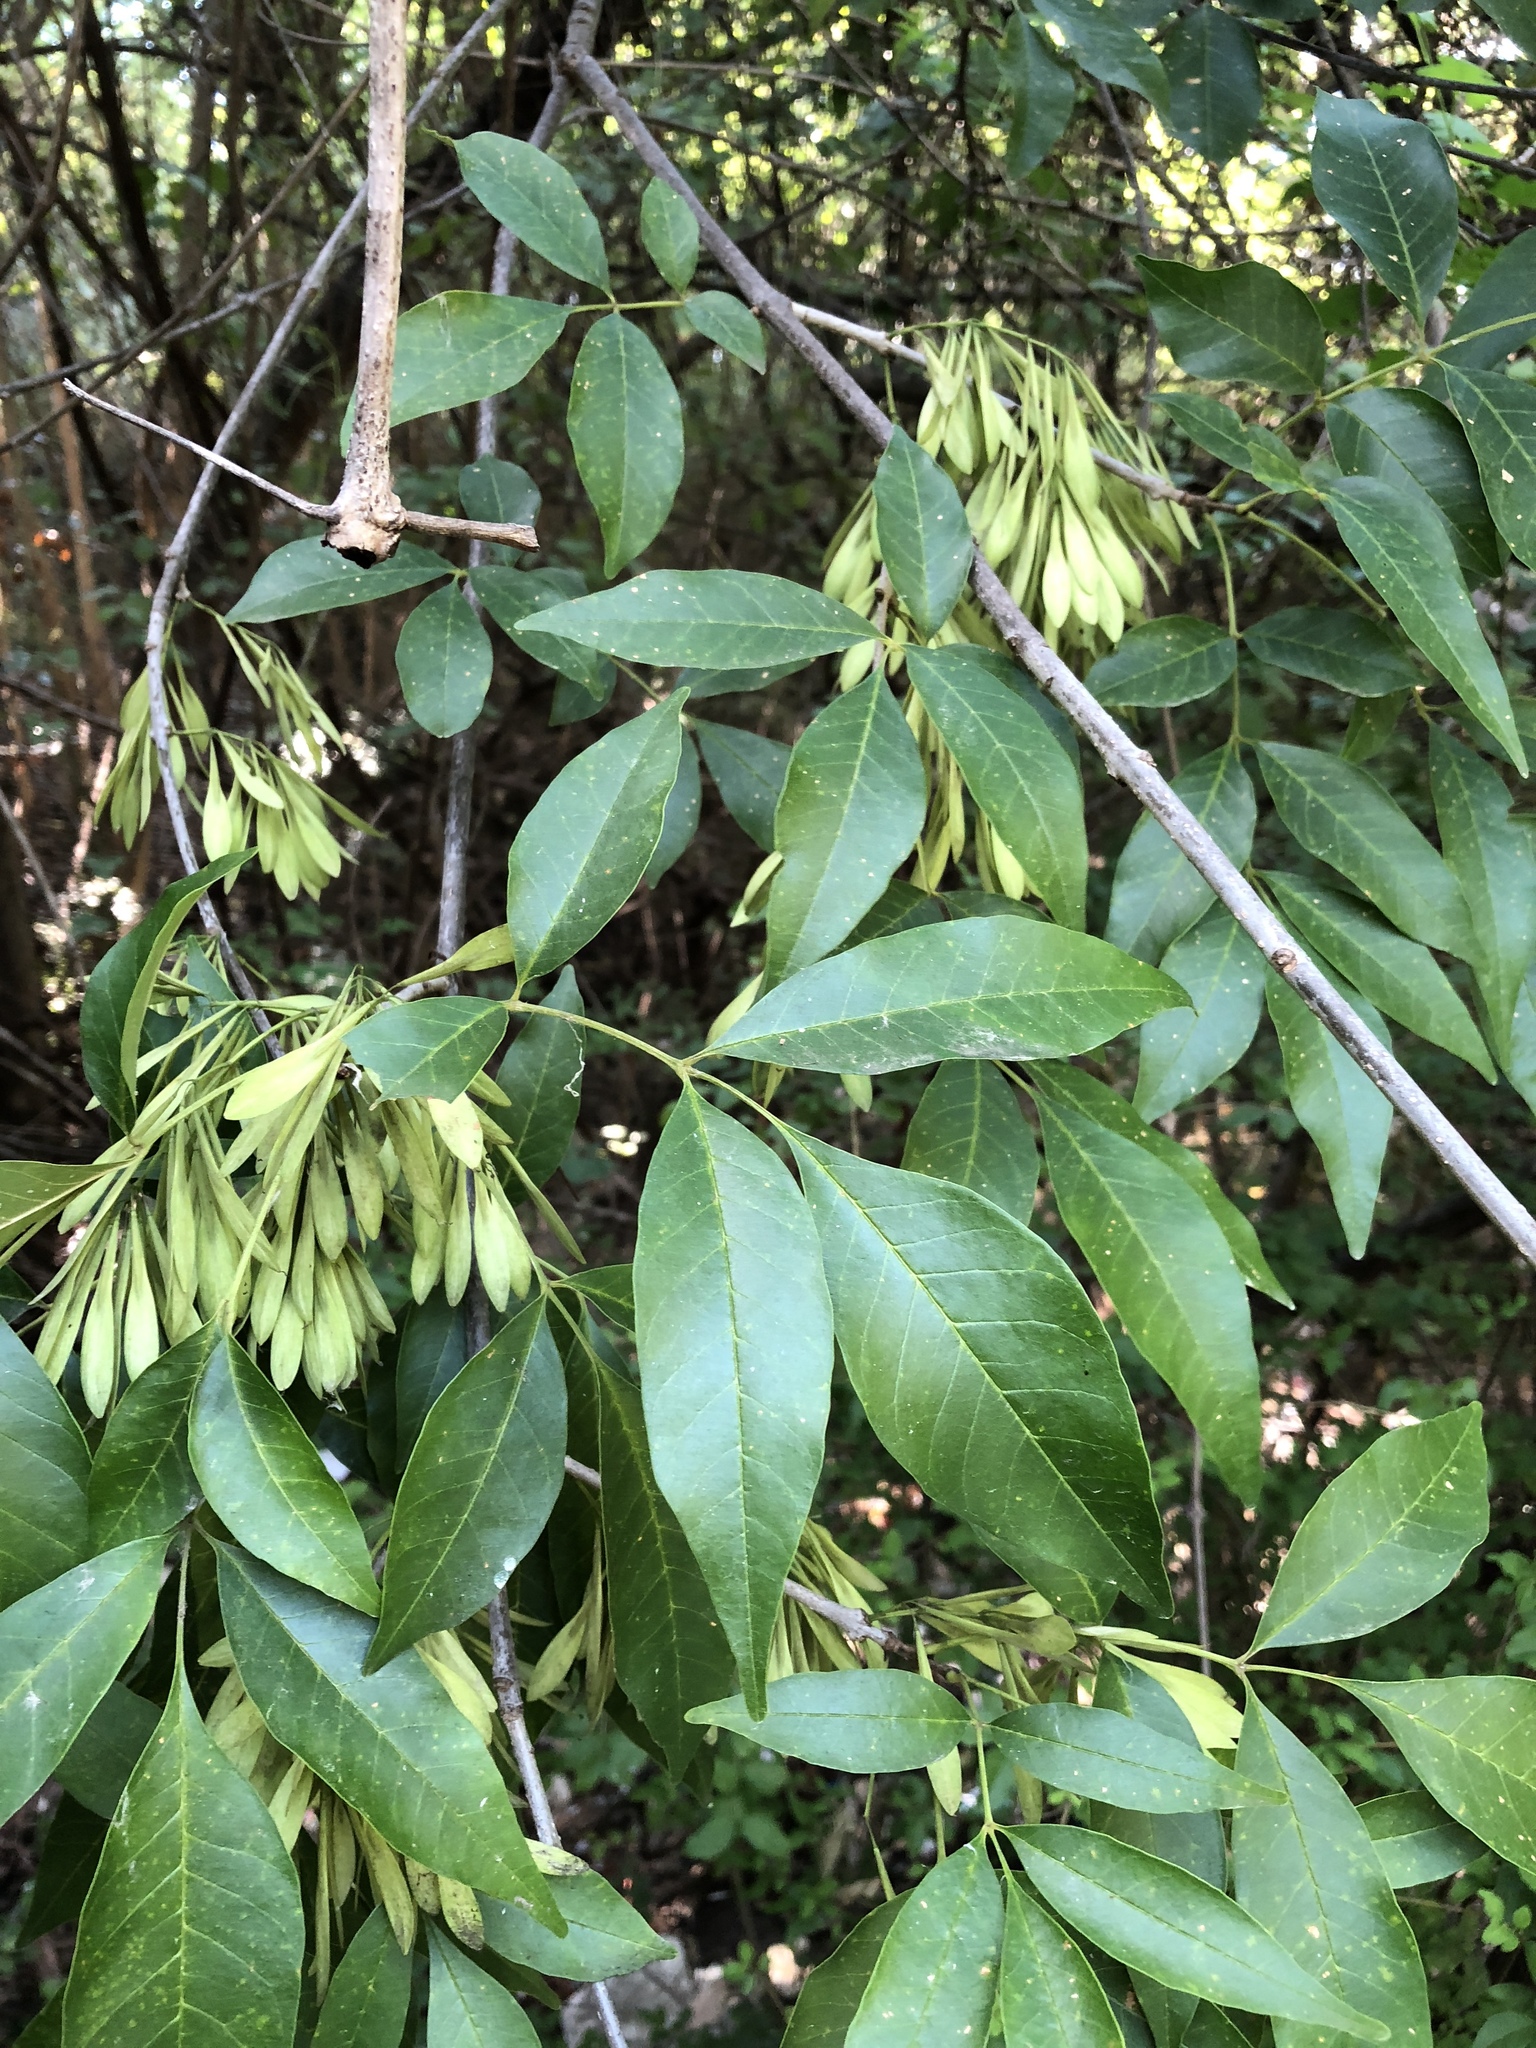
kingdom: Plantae
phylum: Tracheophyta
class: Magnoliopsida
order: Lamiales
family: Oleaceae
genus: Fraxinus
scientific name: Fraxinus pennsylvanica
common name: Green ash
